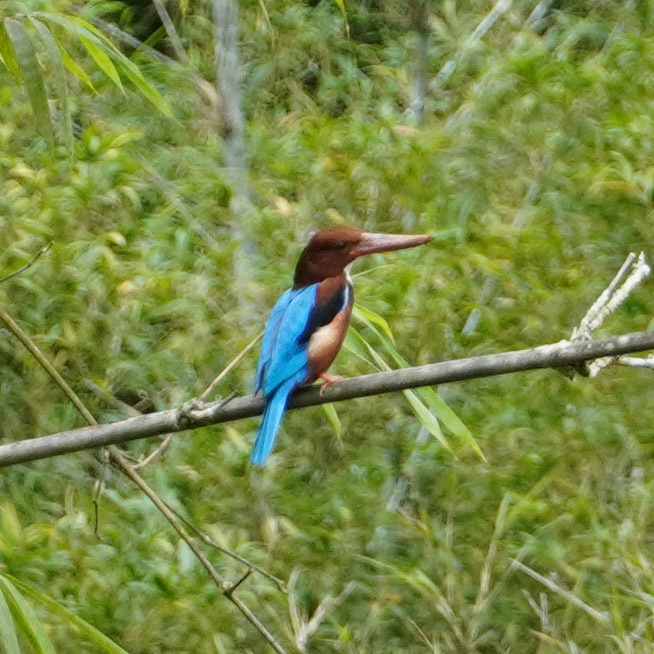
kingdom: Animalia
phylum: Chordata
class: Aves
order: Coraciiformes
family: Alcedinidae
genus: Halcyon
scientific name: Halcyon smyrnensis
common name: White-throated kingfisher
